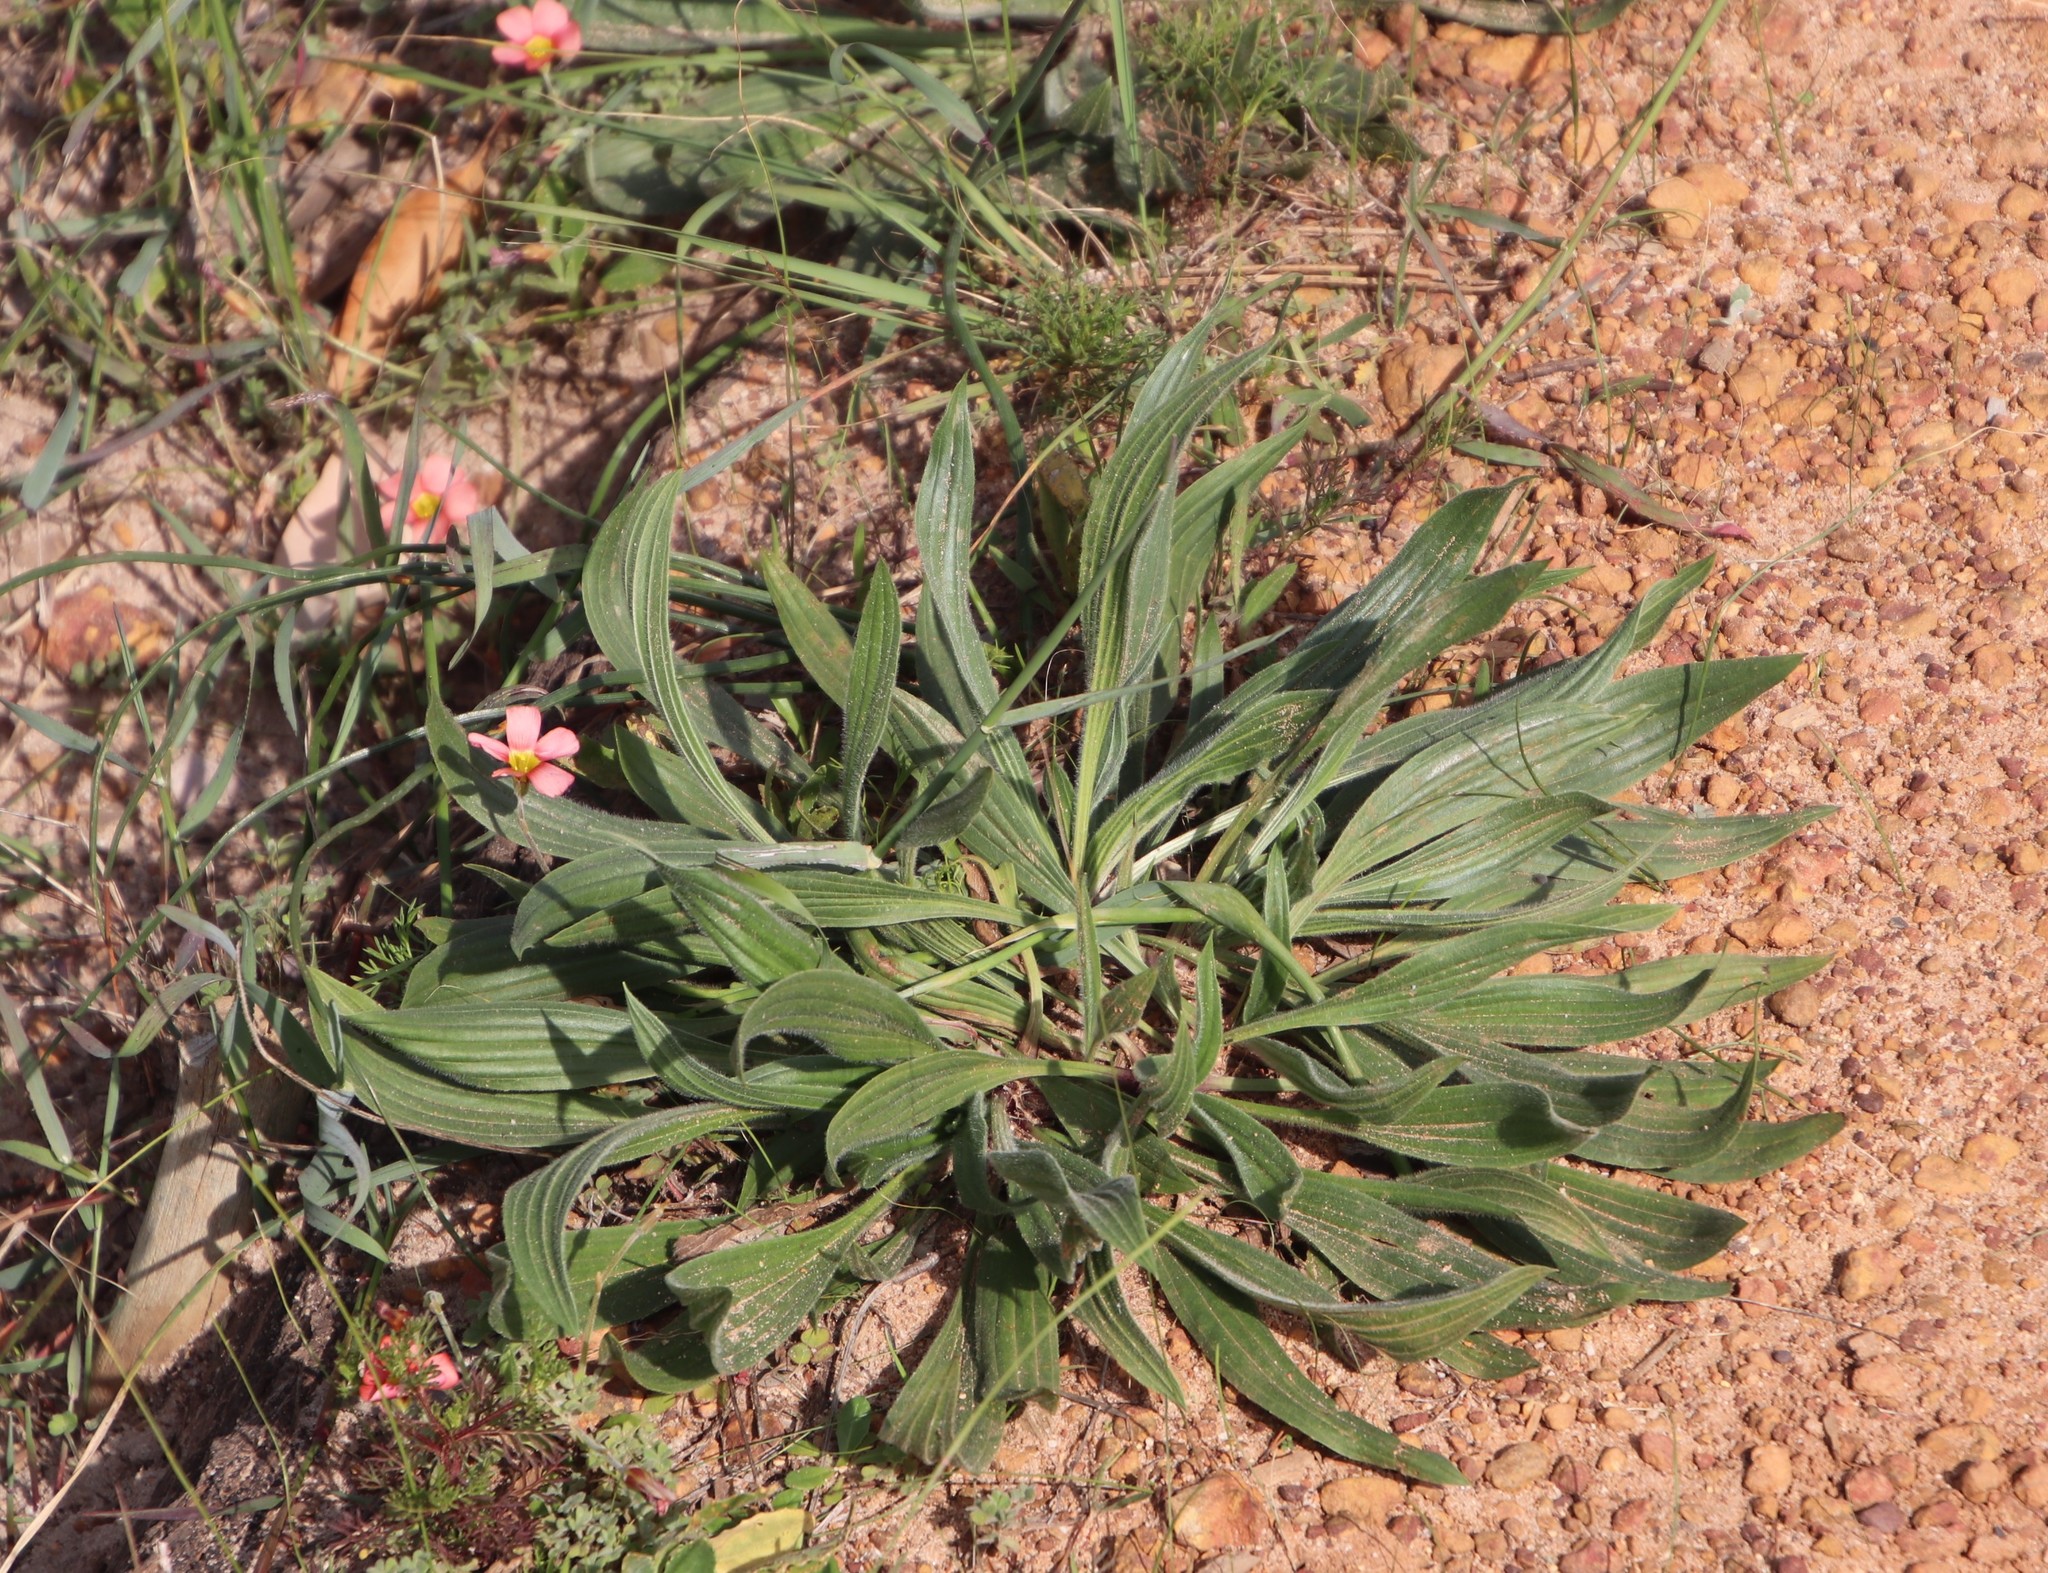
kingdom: Plantae
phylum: Tracheophyta
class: Magnoliopsida
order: Lamiales
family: Plantaginaceae
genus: Plantago
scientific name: Plantago lanceolata
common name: Ribwort plantain
